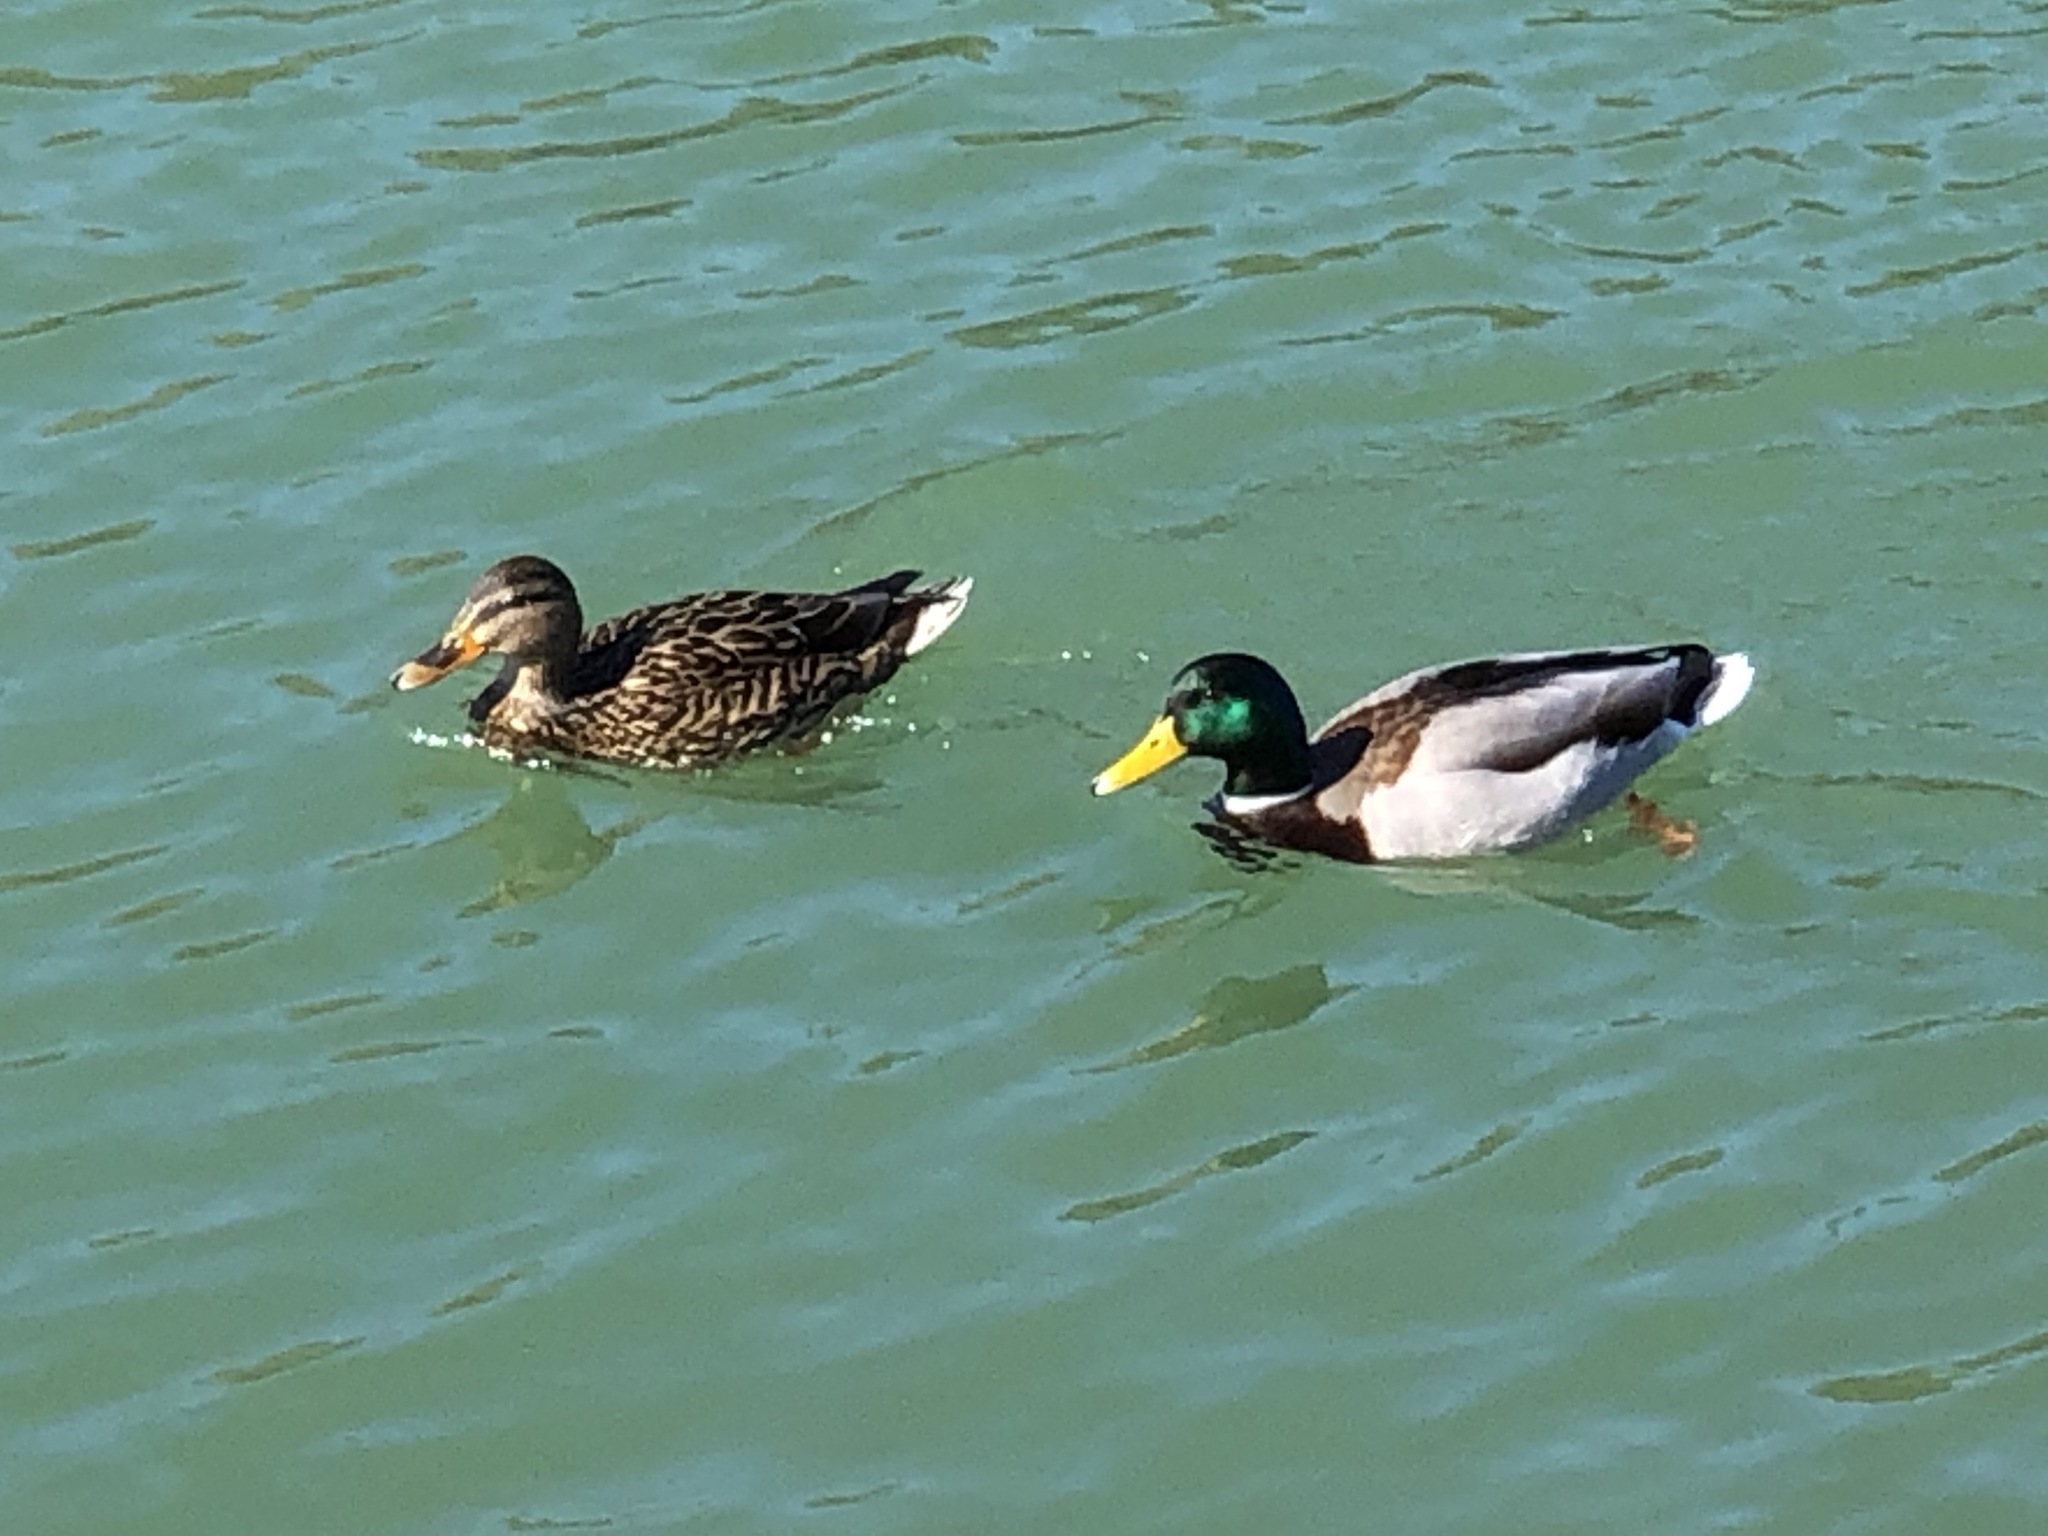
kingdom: Animalia
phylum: Chordata
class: Aves
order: Anseriformes
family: Anatidae
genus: Anas
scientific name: Anas platyrhynchos
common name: Mallard
